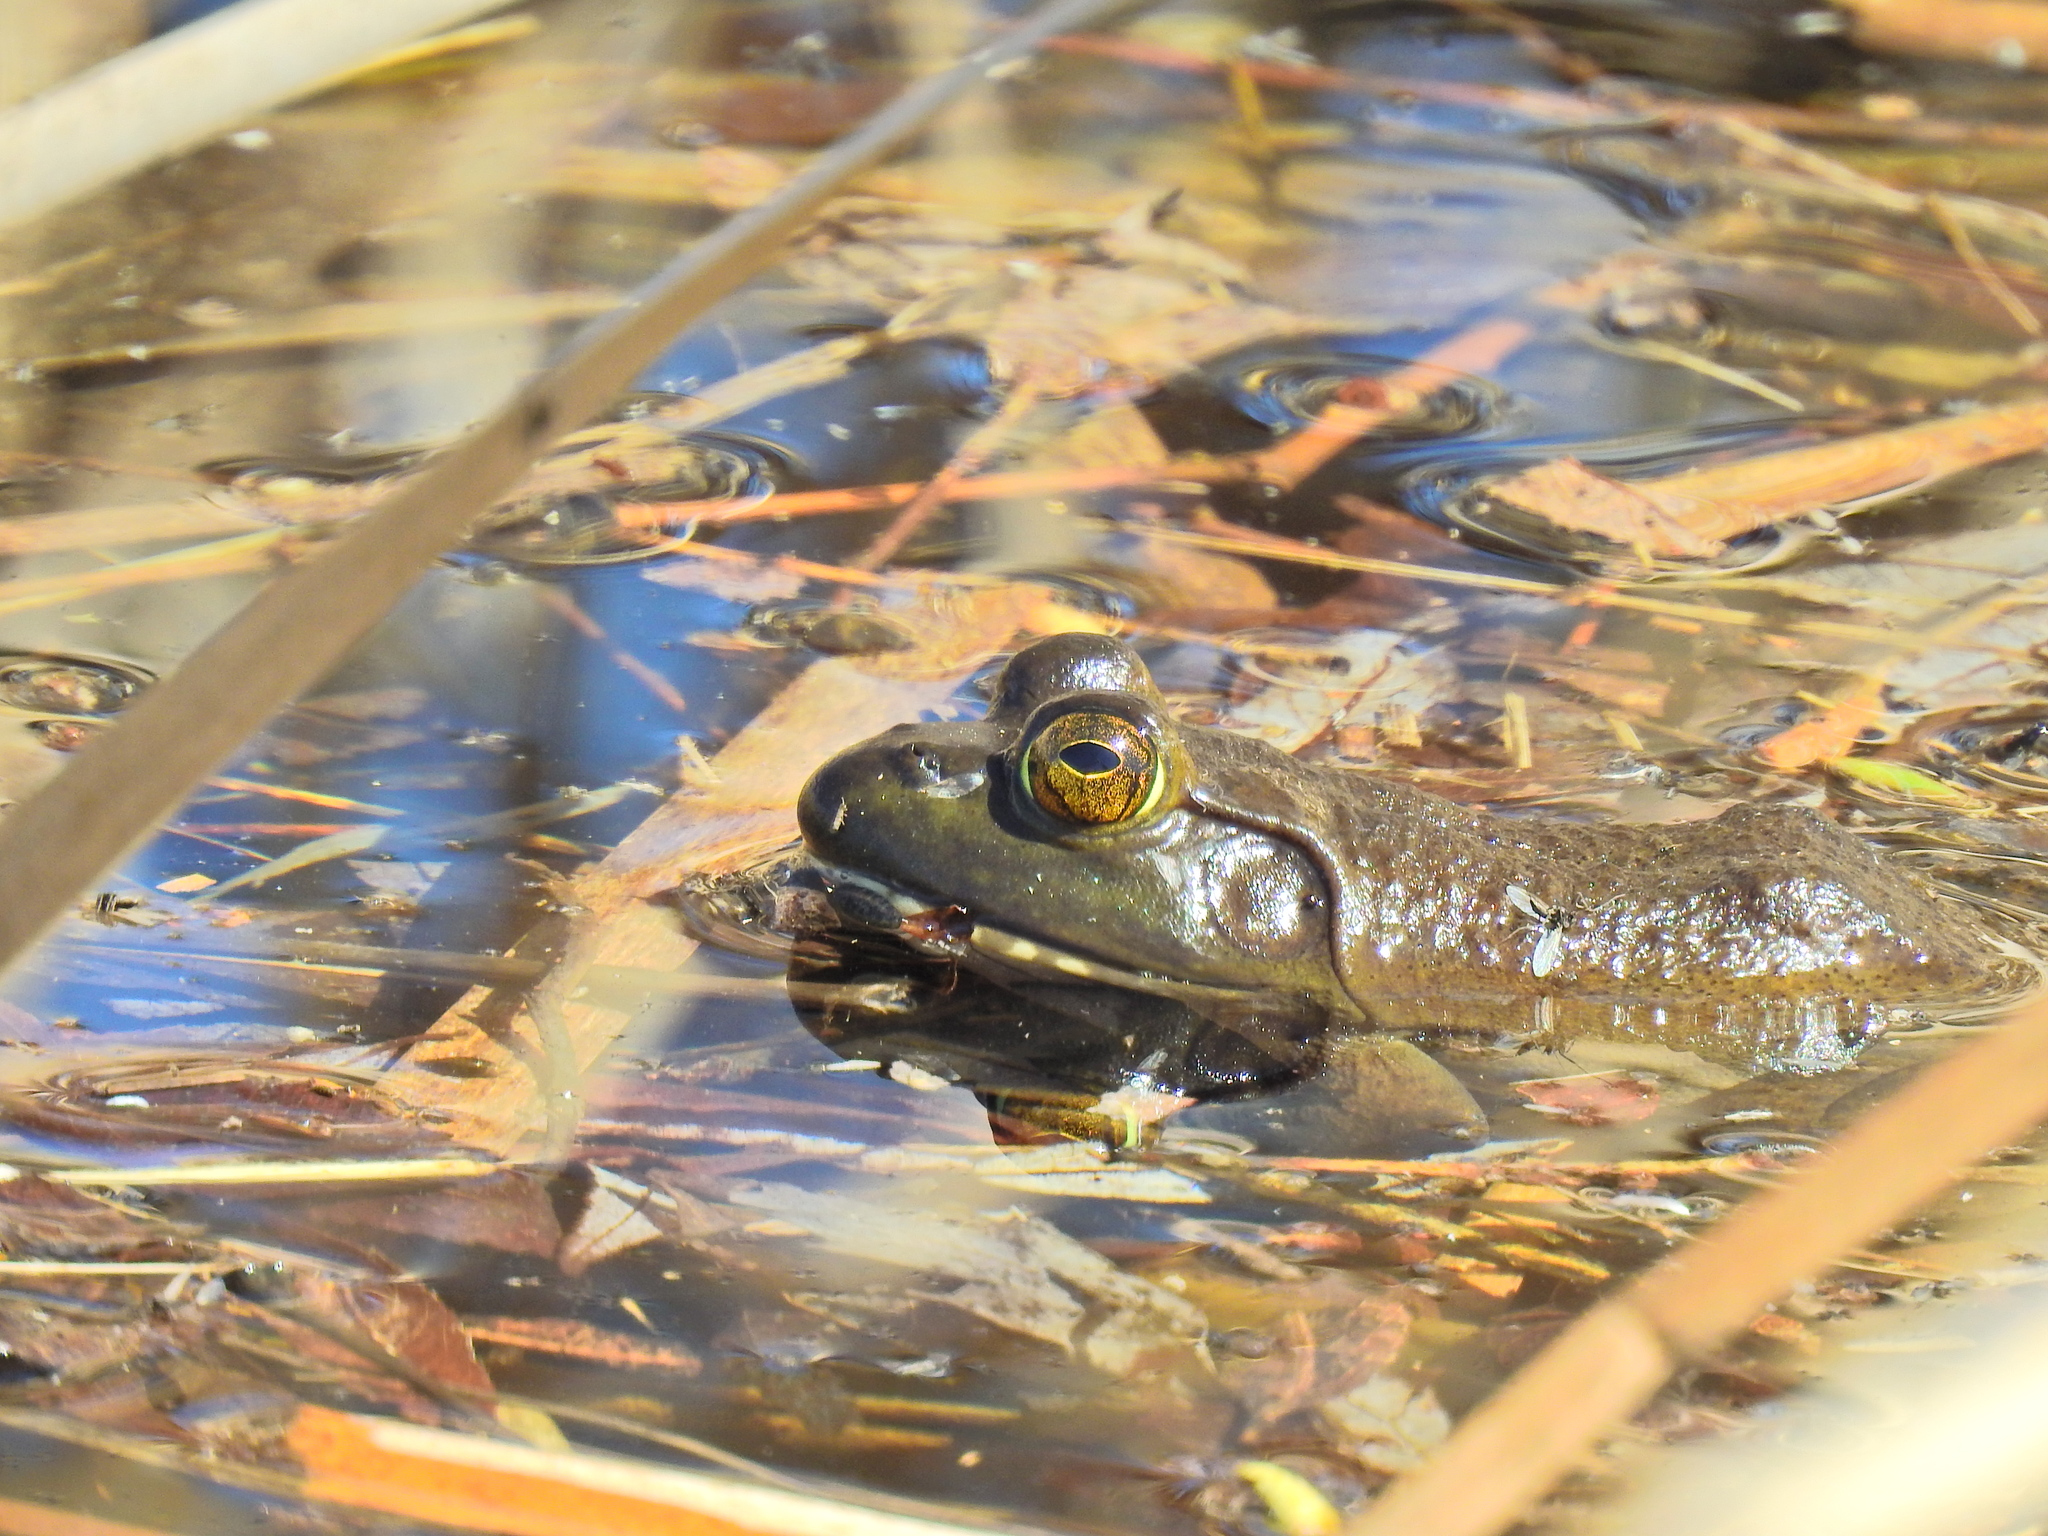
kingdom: Animalia
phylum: Chordata
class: Amphibia
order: Anura
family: Ranidae
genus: Lithobates
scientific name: Lithobates catesbeianus
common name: American bullfrog
